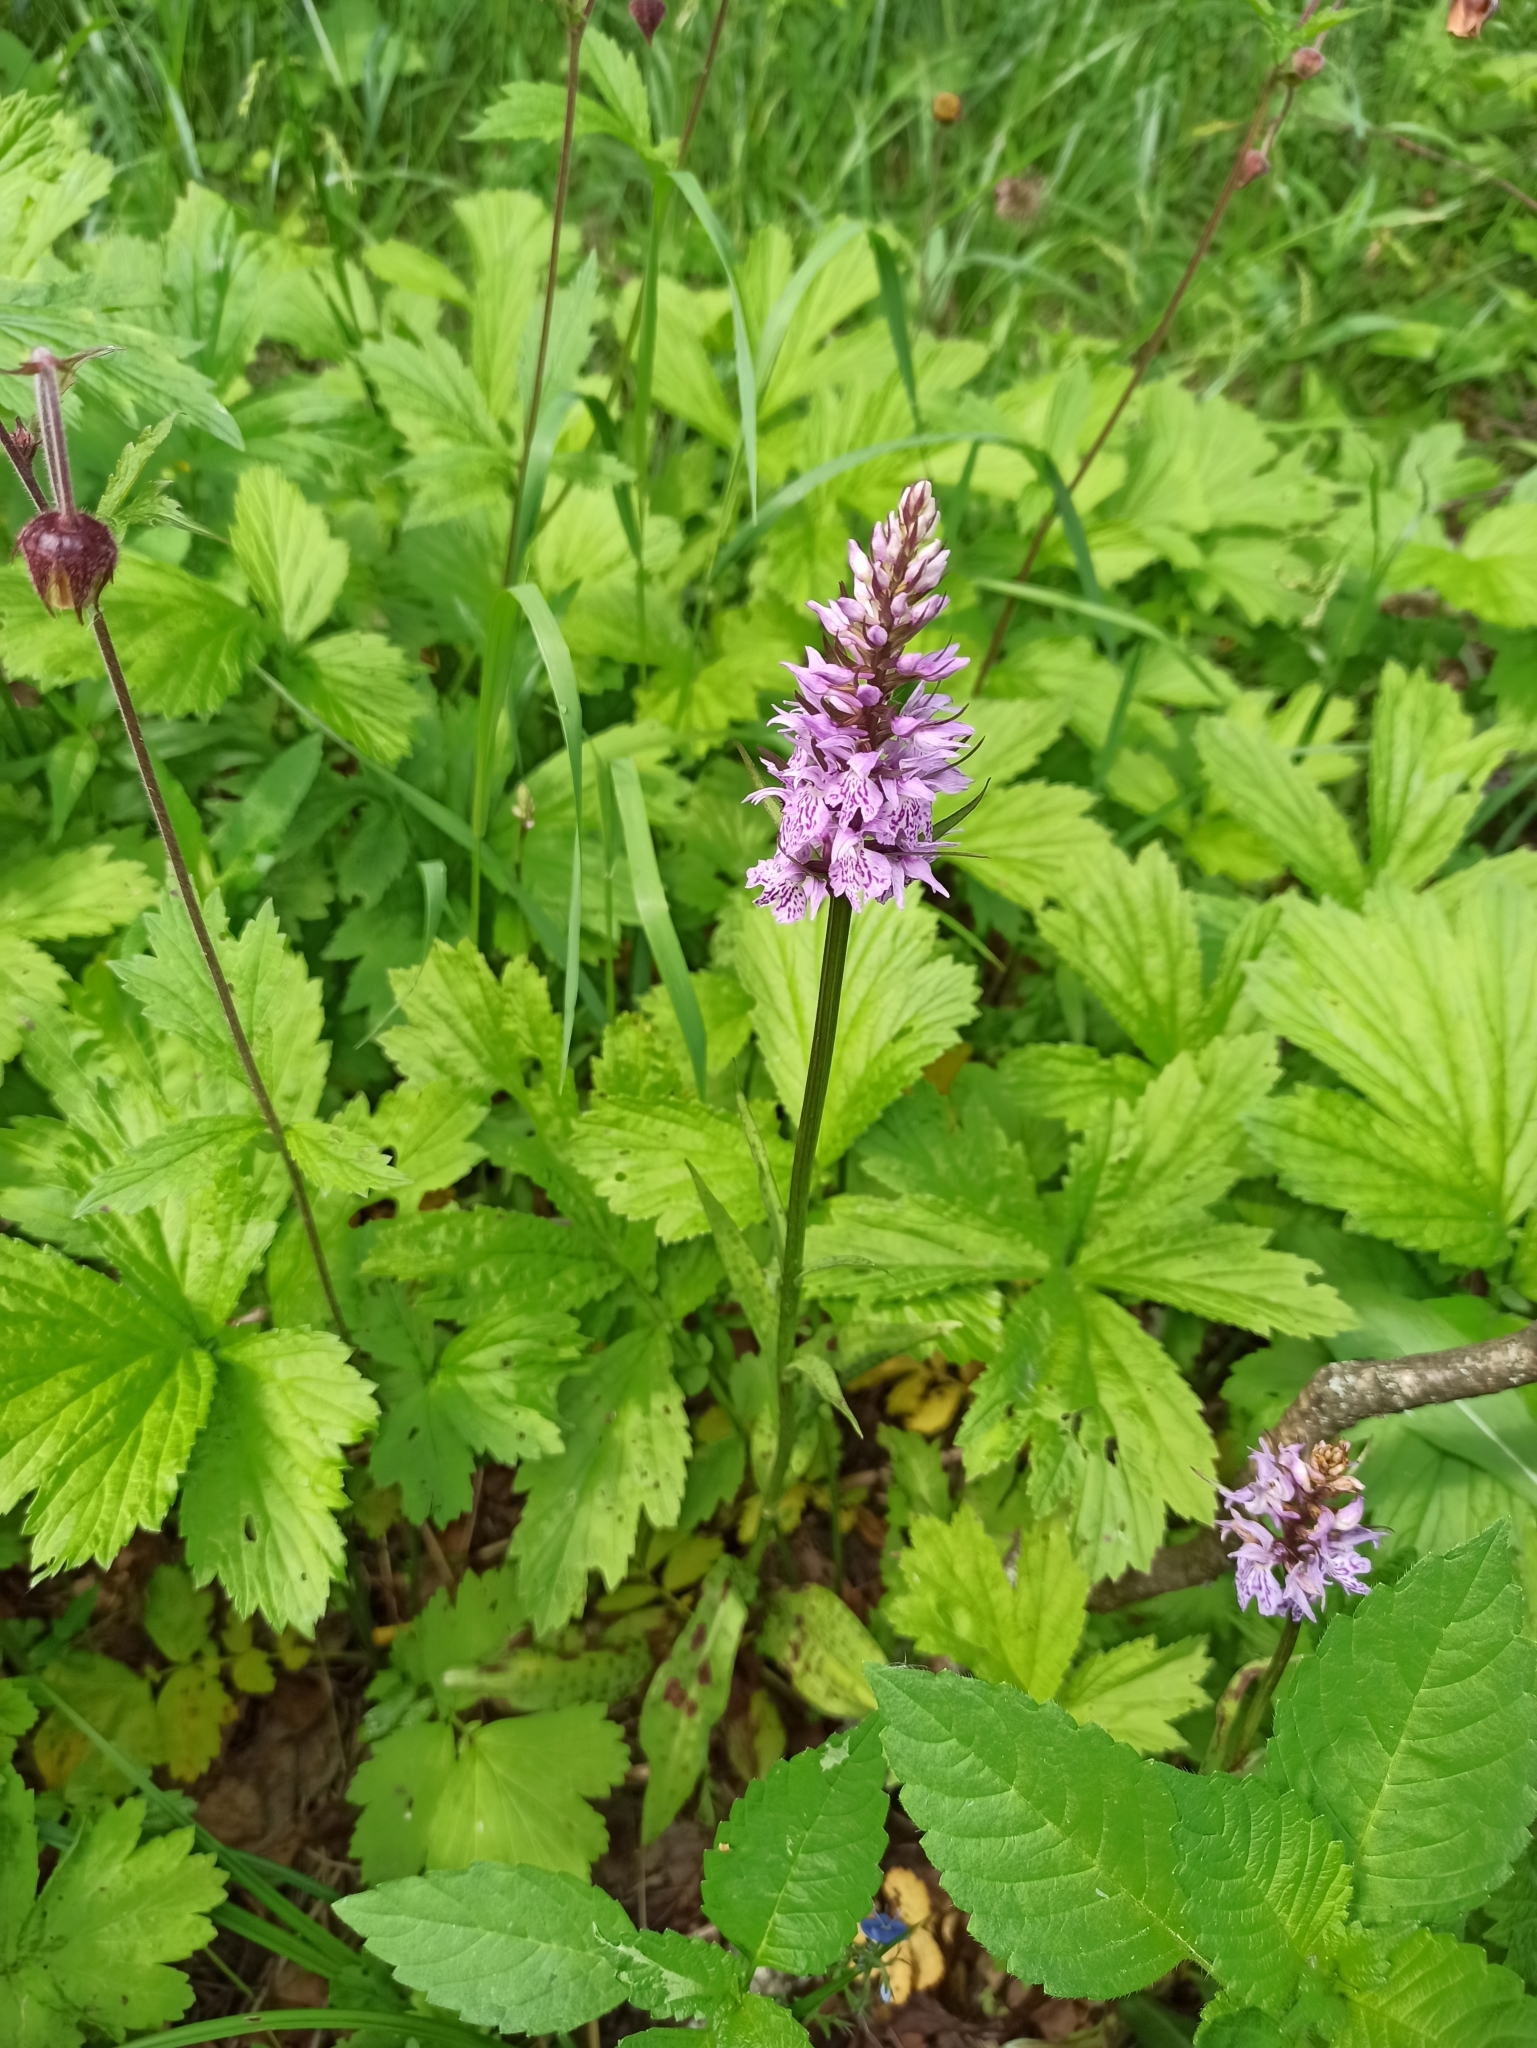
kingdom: Plantae
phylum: Tracheophyta
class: Liliopsida
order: Asparagales
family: Orchidaceae
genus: Dactylorhiza
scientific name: Dactylorhiza maculata
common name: Heath spotted-orchid
